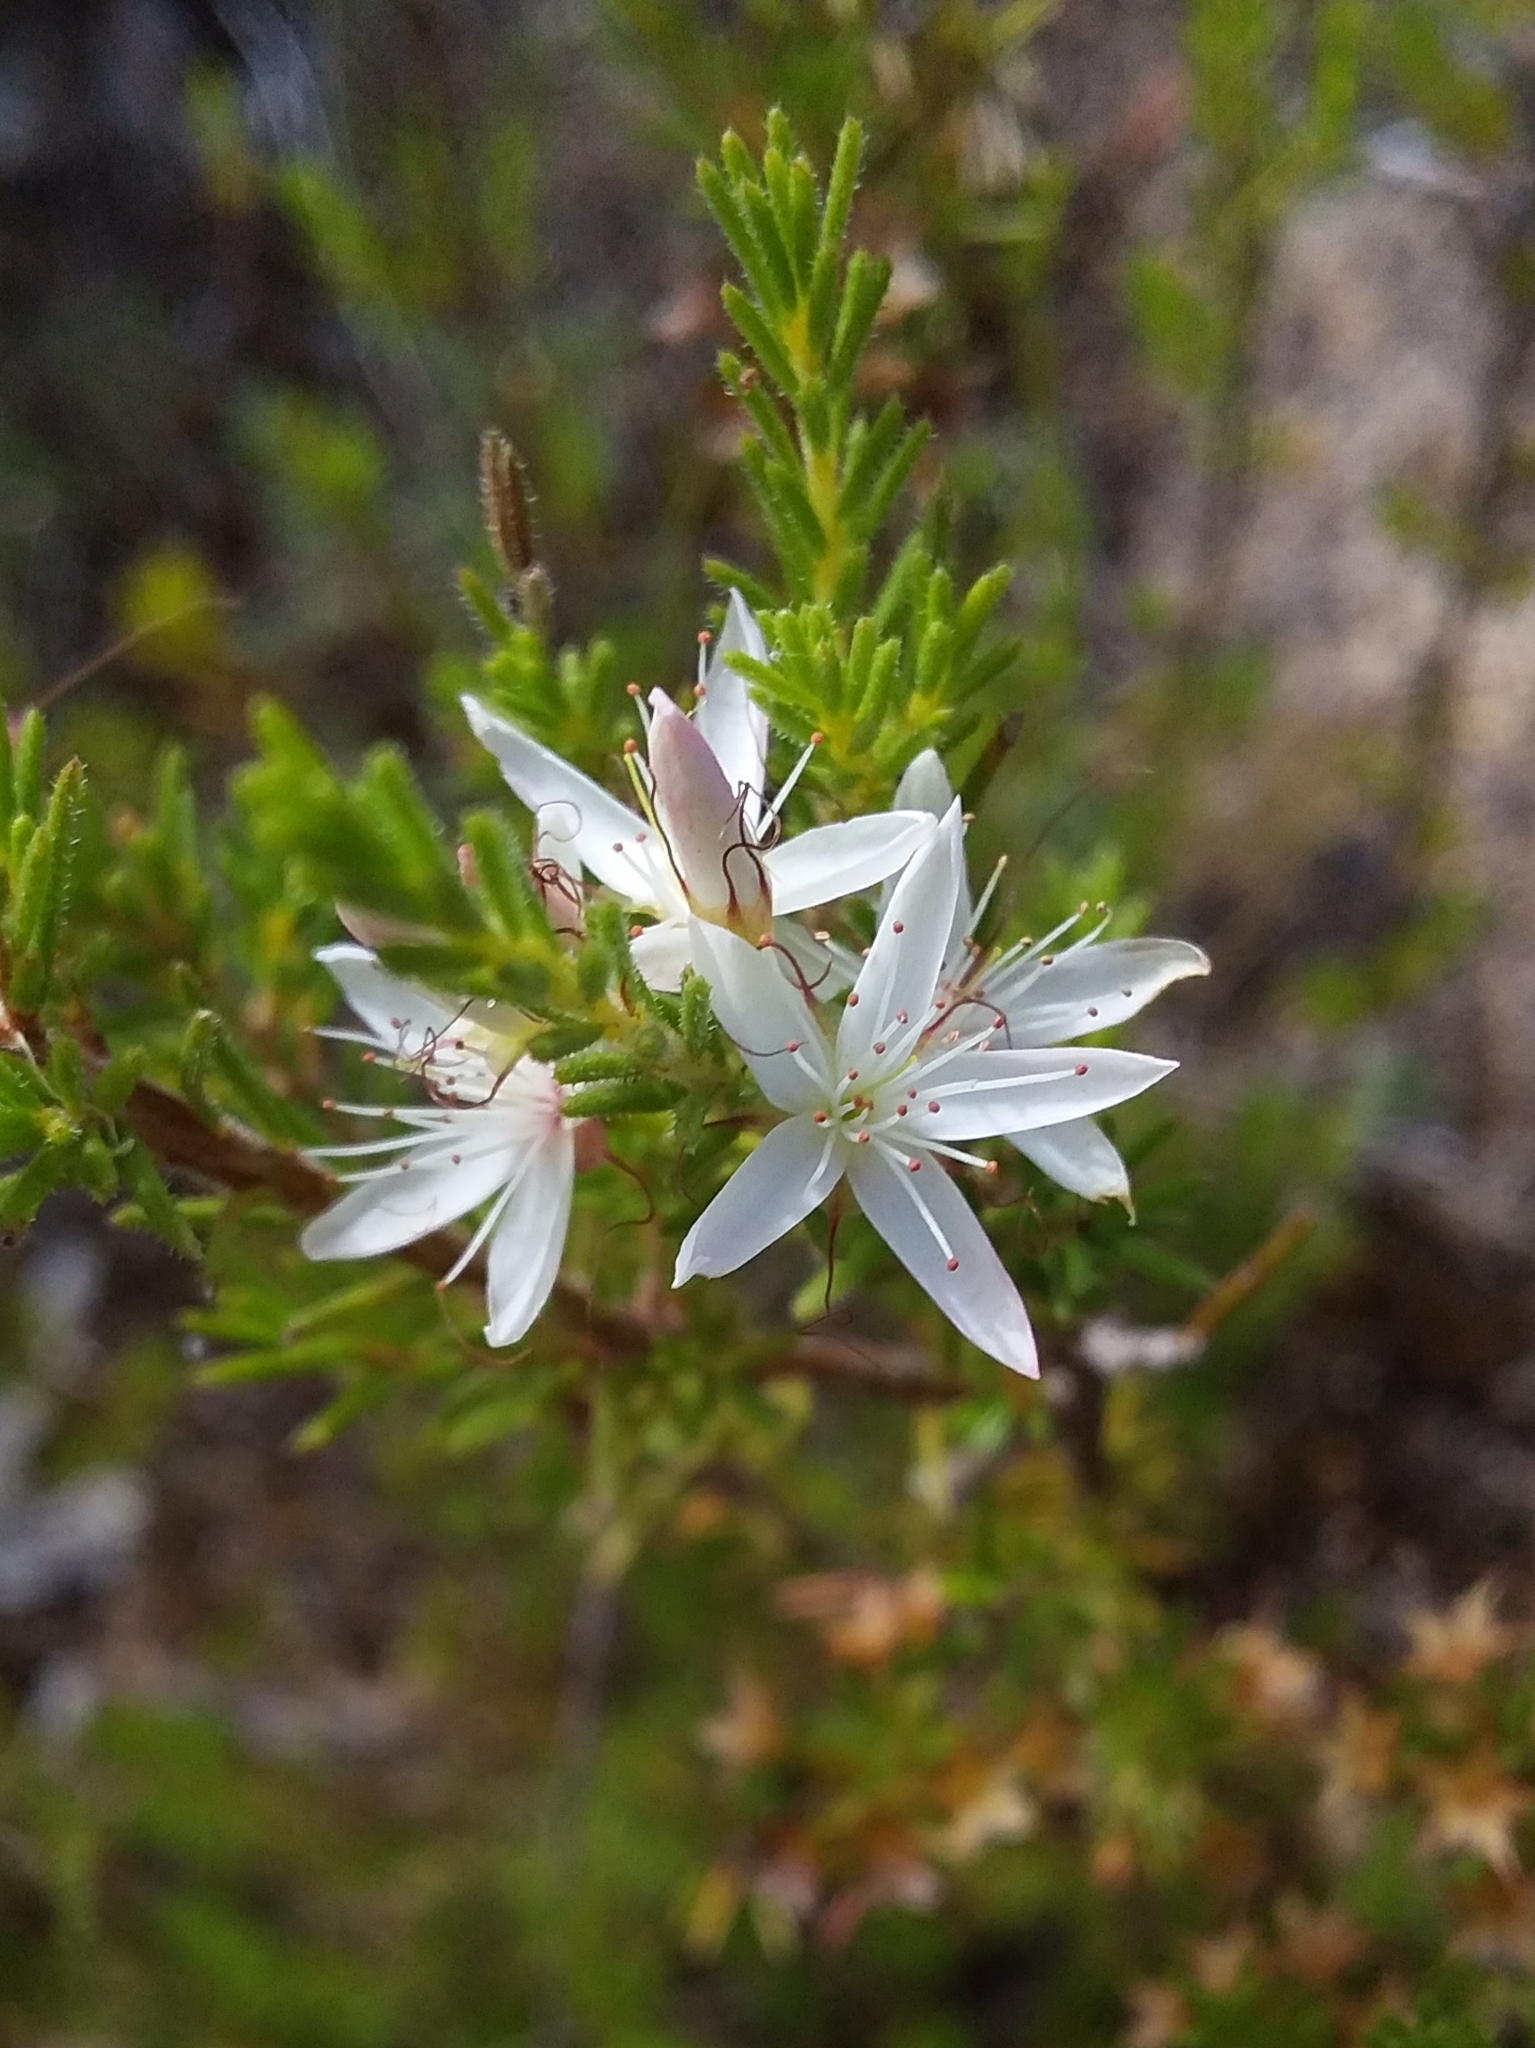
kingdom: Plantae
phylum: Tracheophyta
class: Magnoliopsida
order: Myrtales
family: Myrtaceae
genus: Calytrix
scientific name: Calytrix tetragona
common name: Common fringe myrtle
